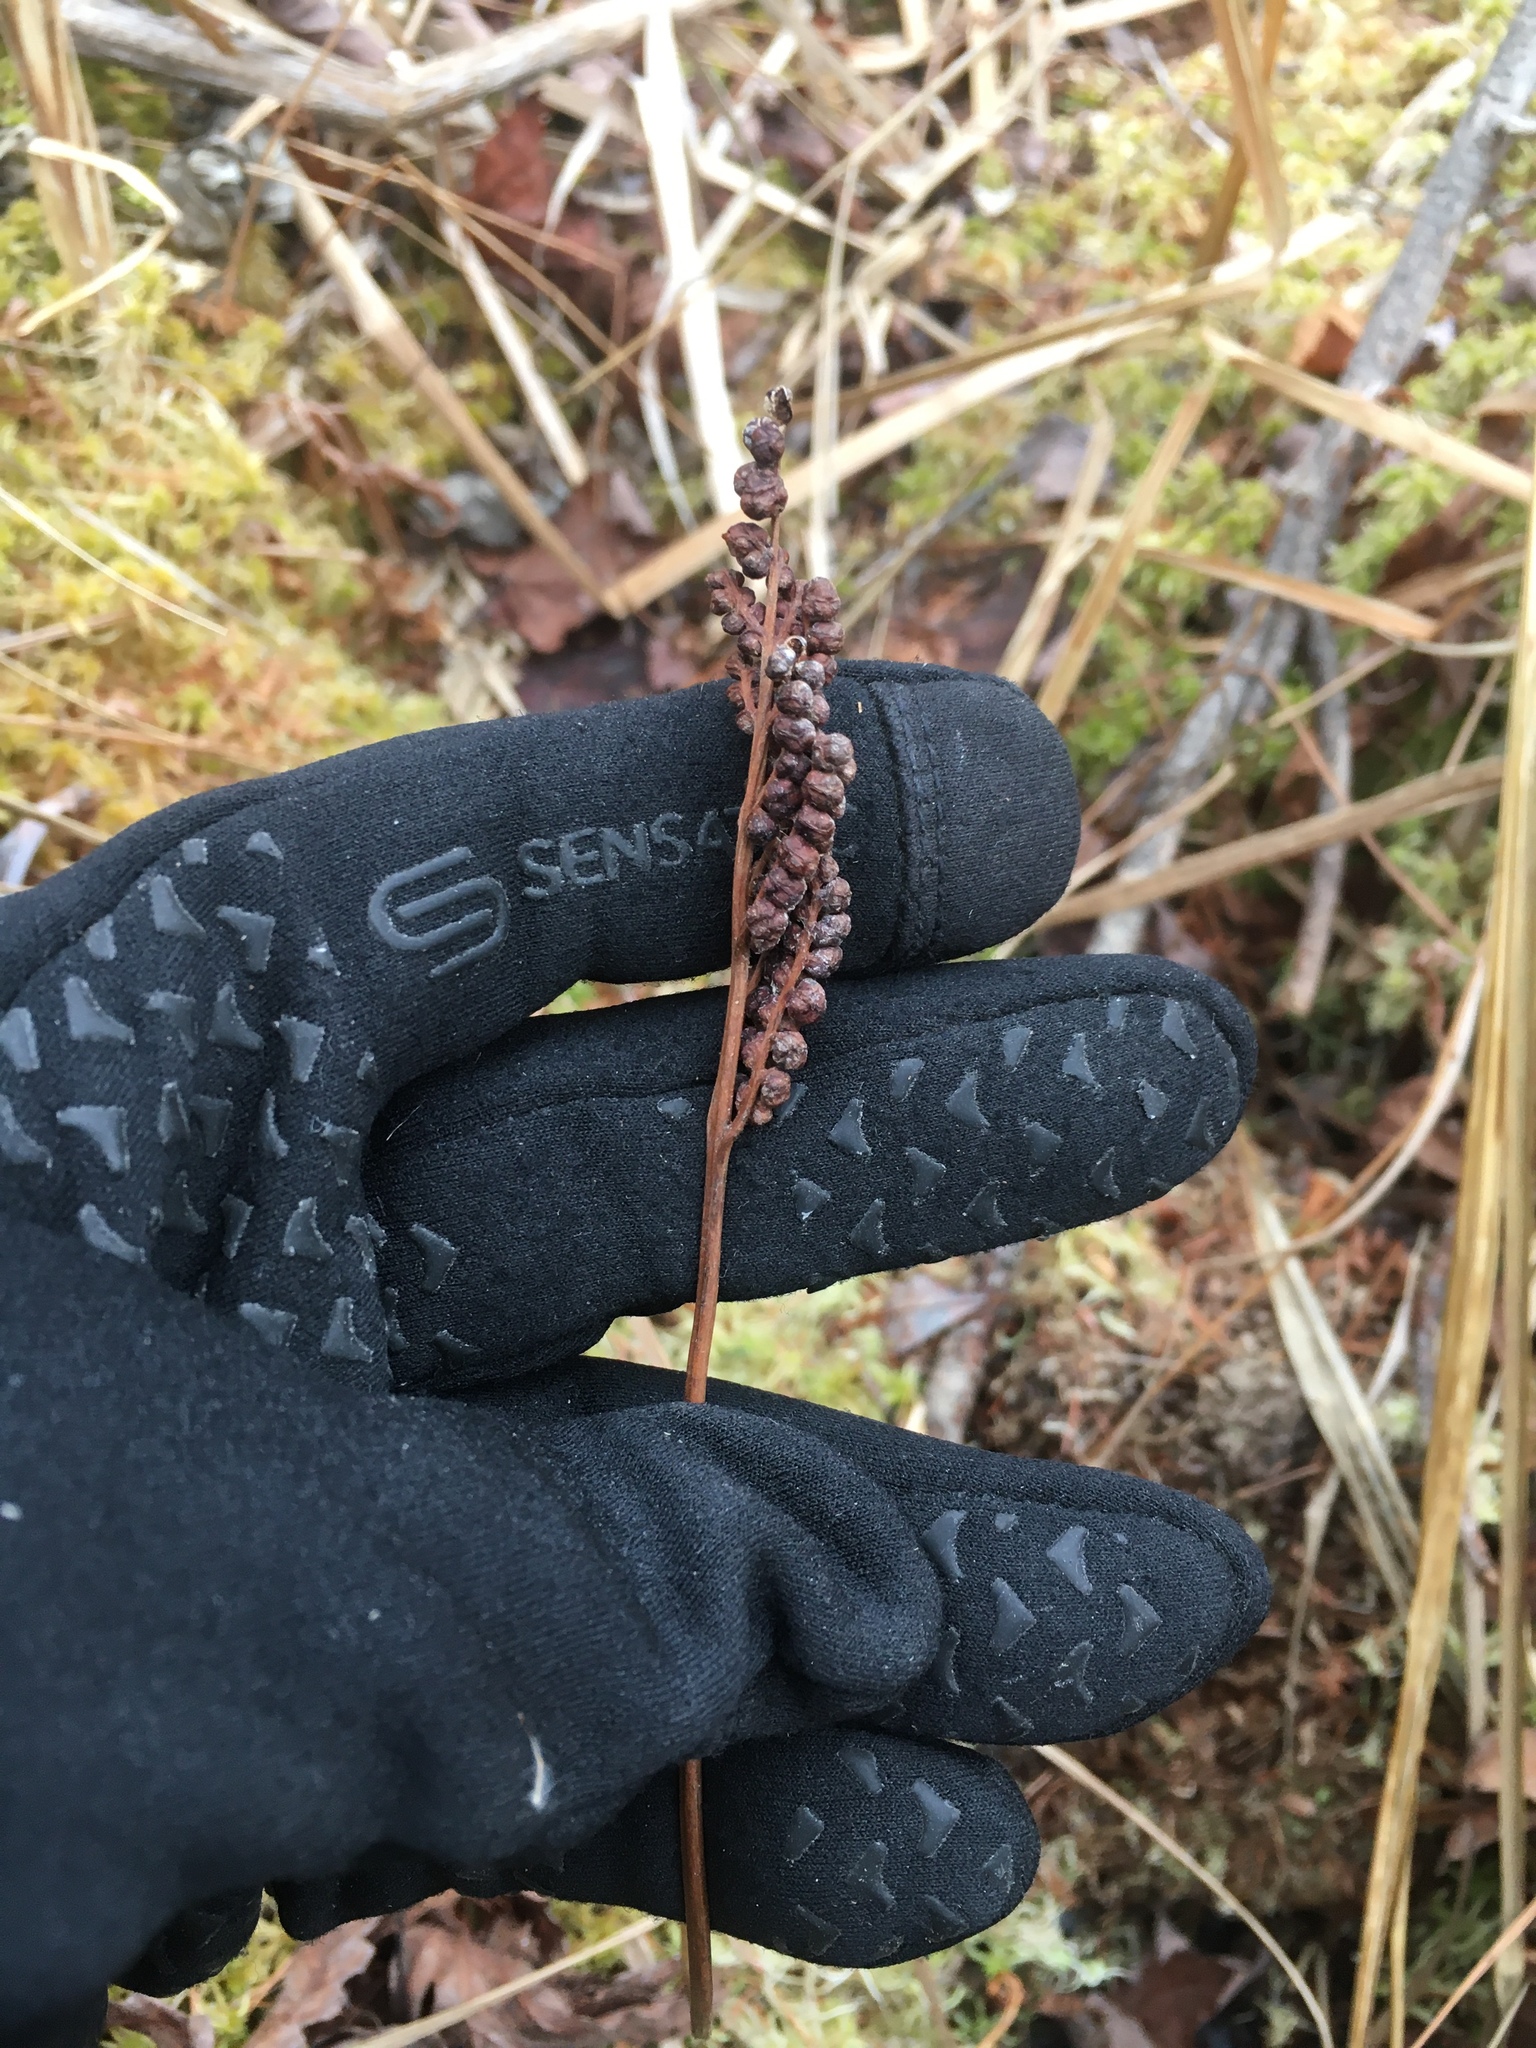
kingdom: Plantae
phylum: Tracheophyta
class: Polypodiopsida
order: Polypodiales
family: Onocleaceae
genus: Onoclea
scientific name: Onoclea sensibilis
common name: Sensitive fern
